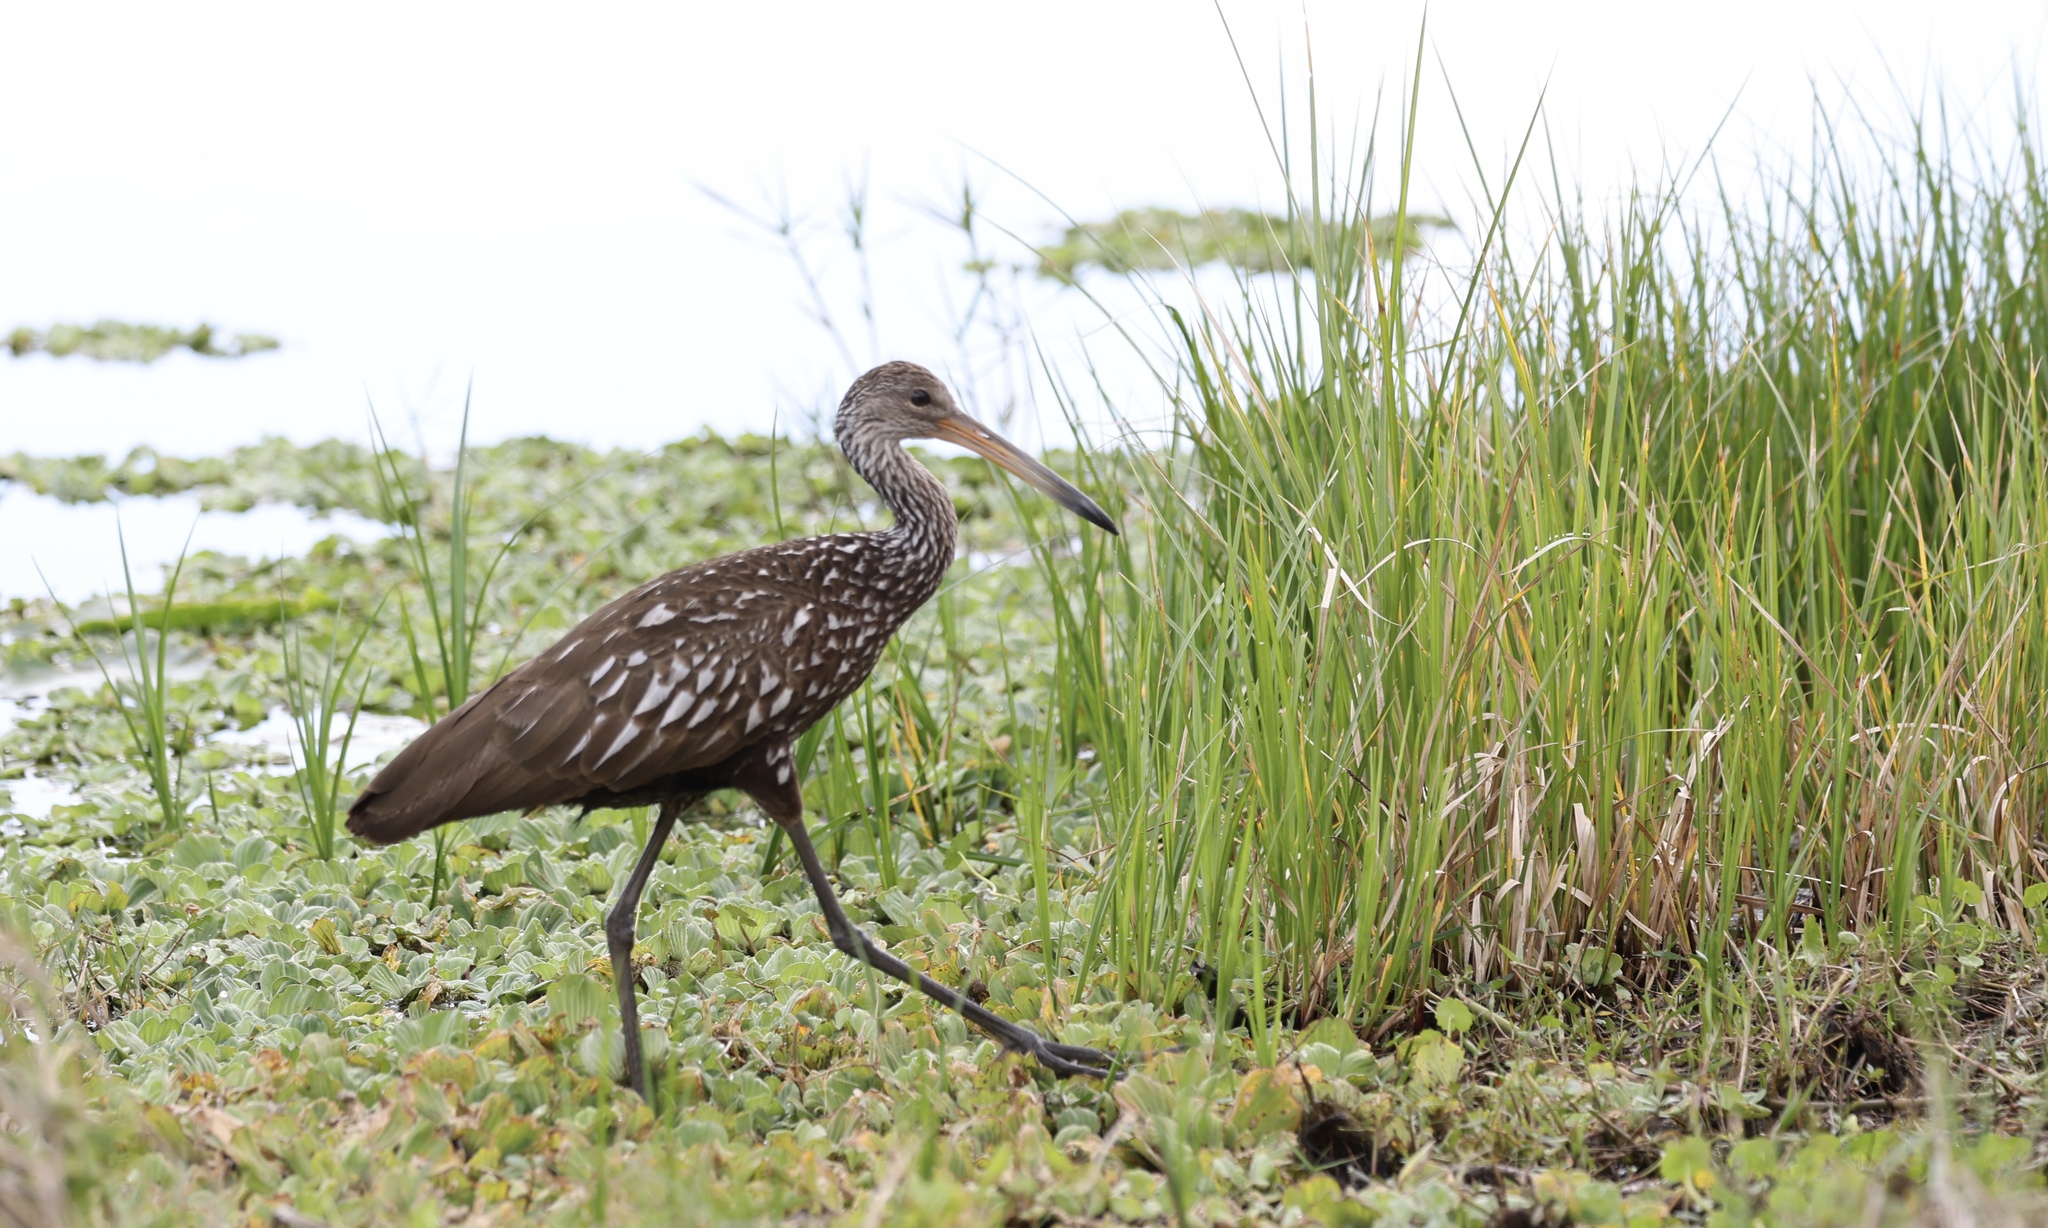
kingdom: Animalia
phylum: Chordata
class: Aves
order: Gruiformes
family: Aramidae
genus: Aramus
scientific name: Aramus guarauna
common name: Limpkin
